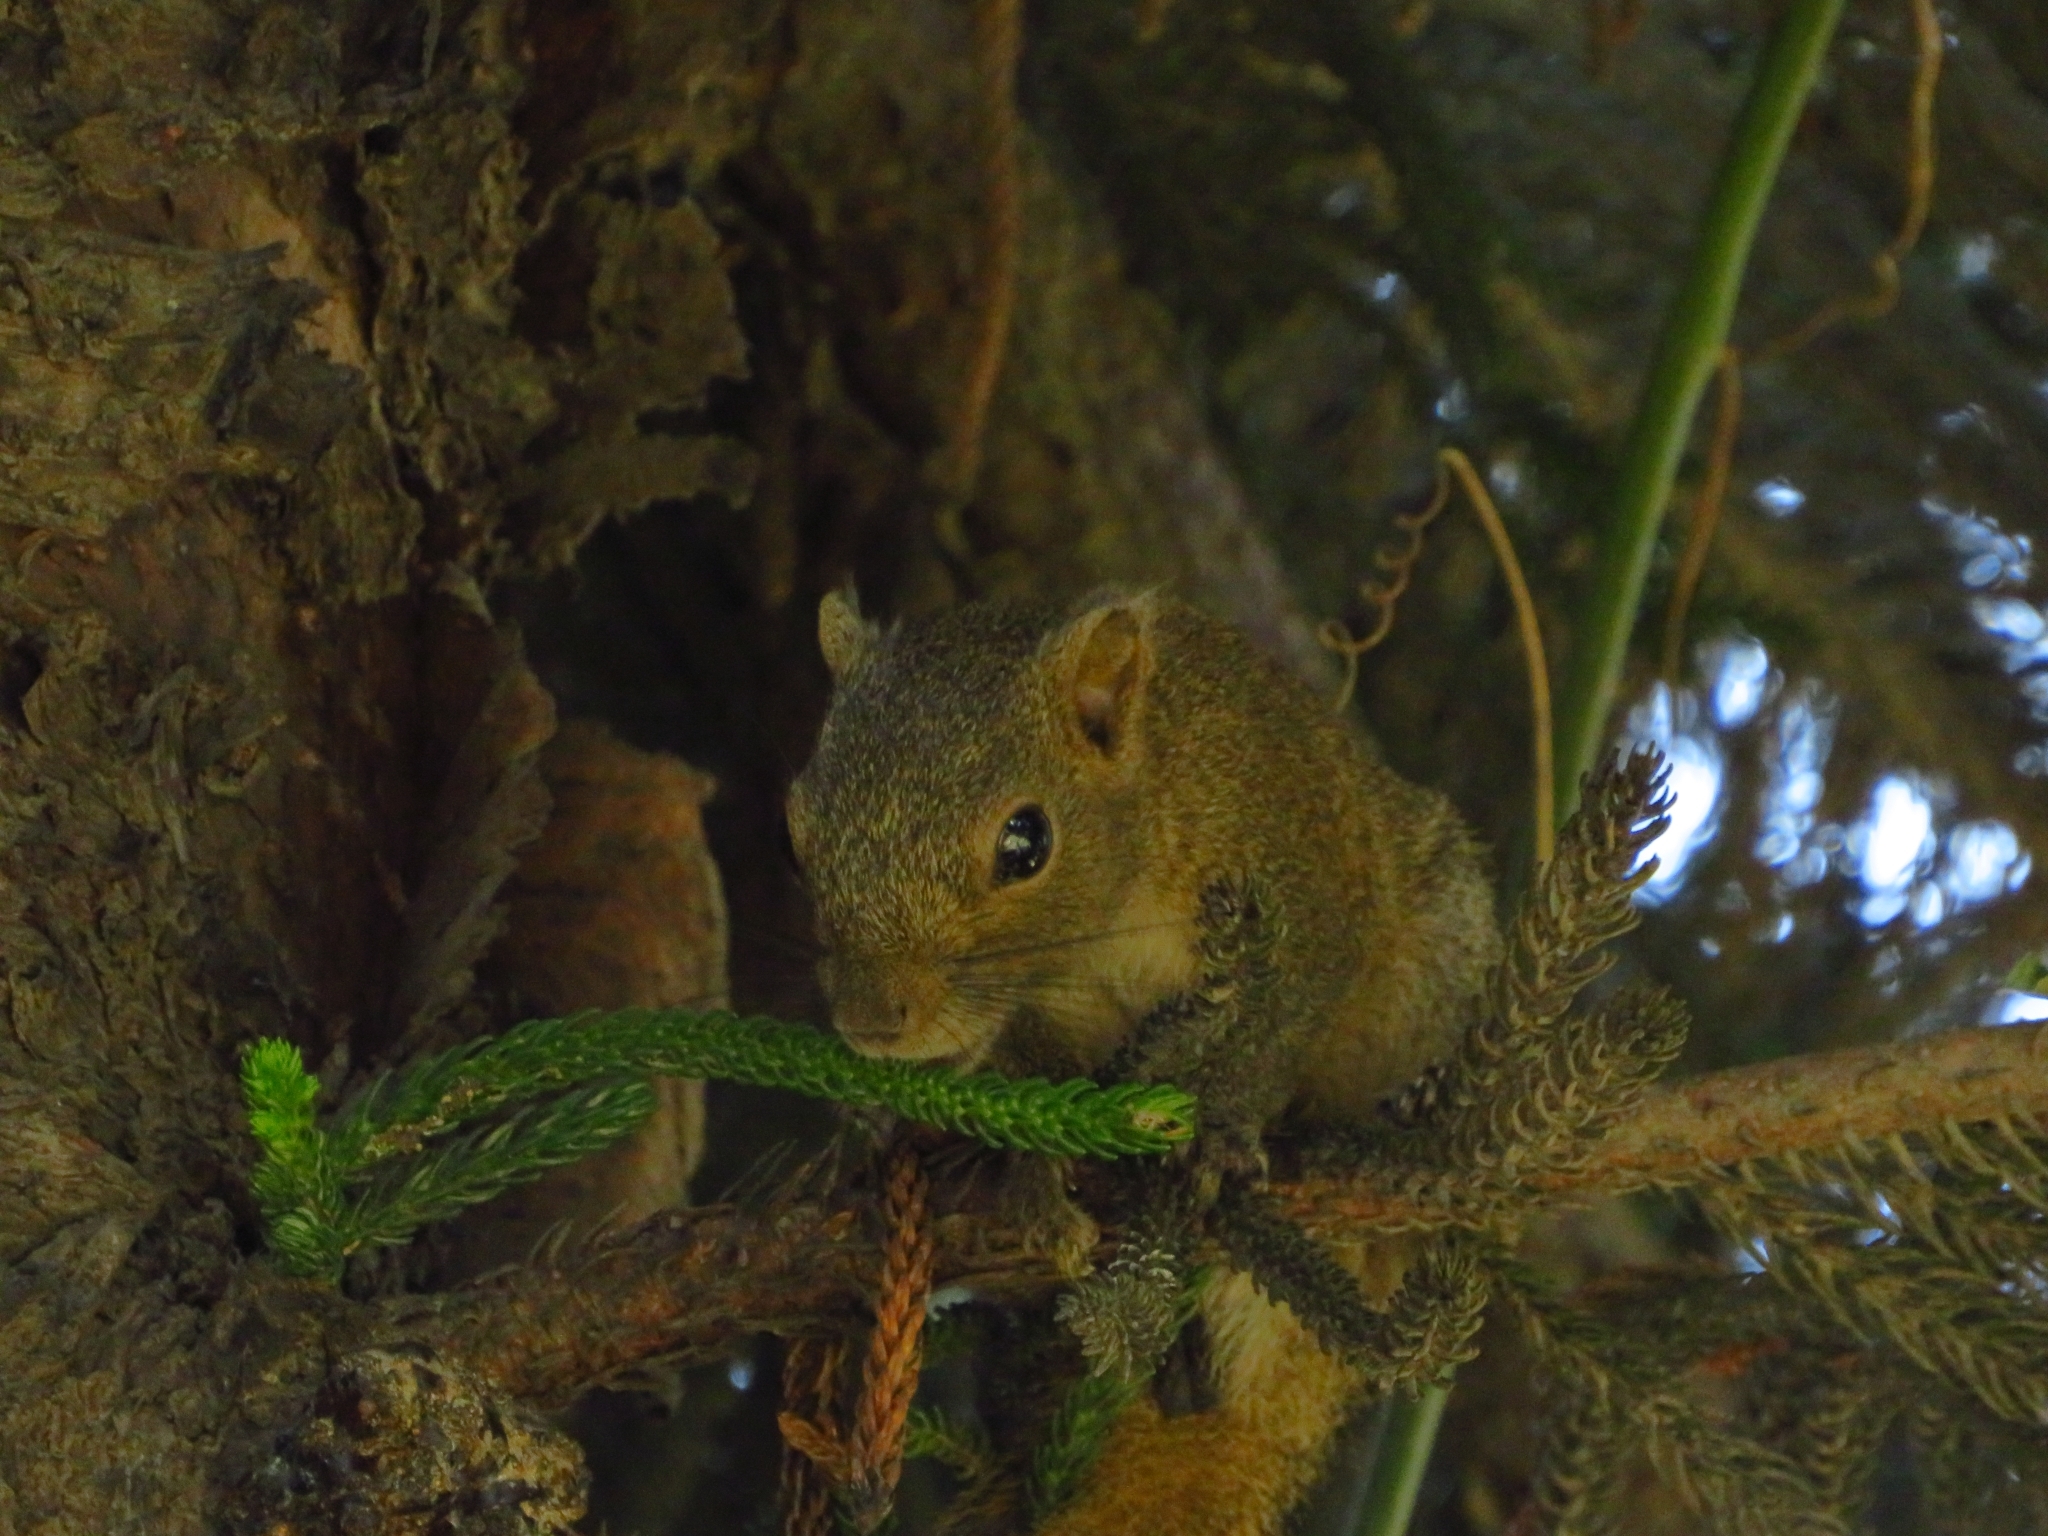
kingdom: Animalia
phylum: Chordata
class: Mammalia
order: Rodentia
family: Sciuridae
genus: Callosciurus
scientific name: Callosciurus pygerythrus
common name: Irrawaddy squirrel
